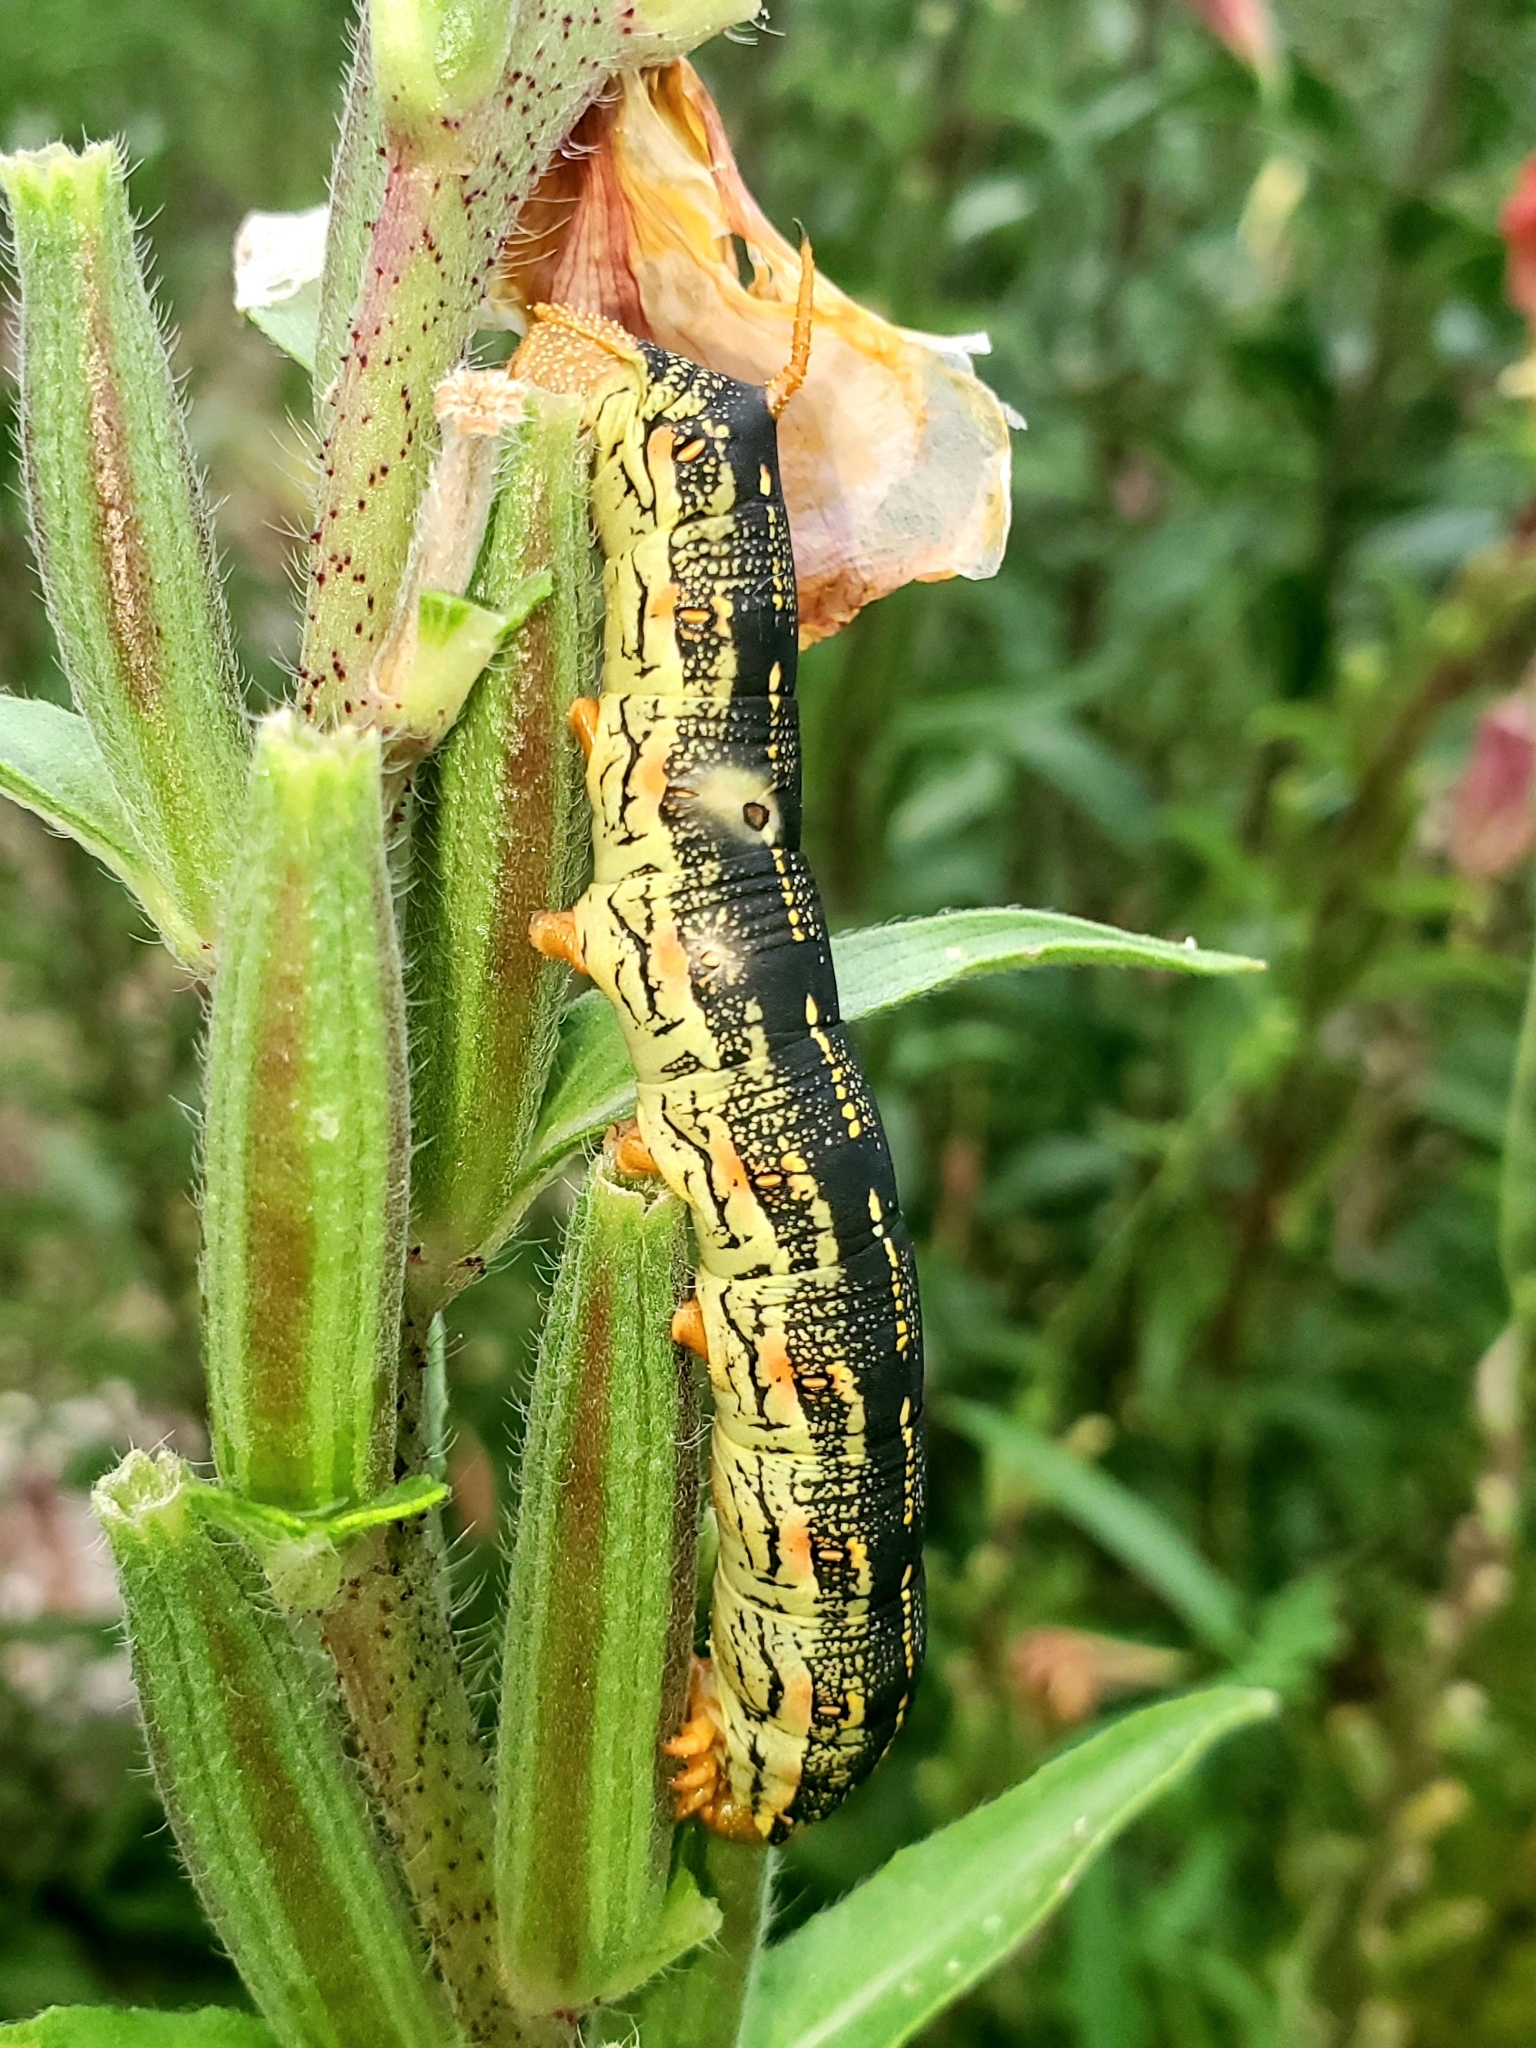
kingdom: Animalia
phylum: Arthropoda
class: Insecta
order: Lepidoptera
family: Sphingidae
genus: Hyles
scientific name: Hyles lineata
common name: White-lined sphinx
